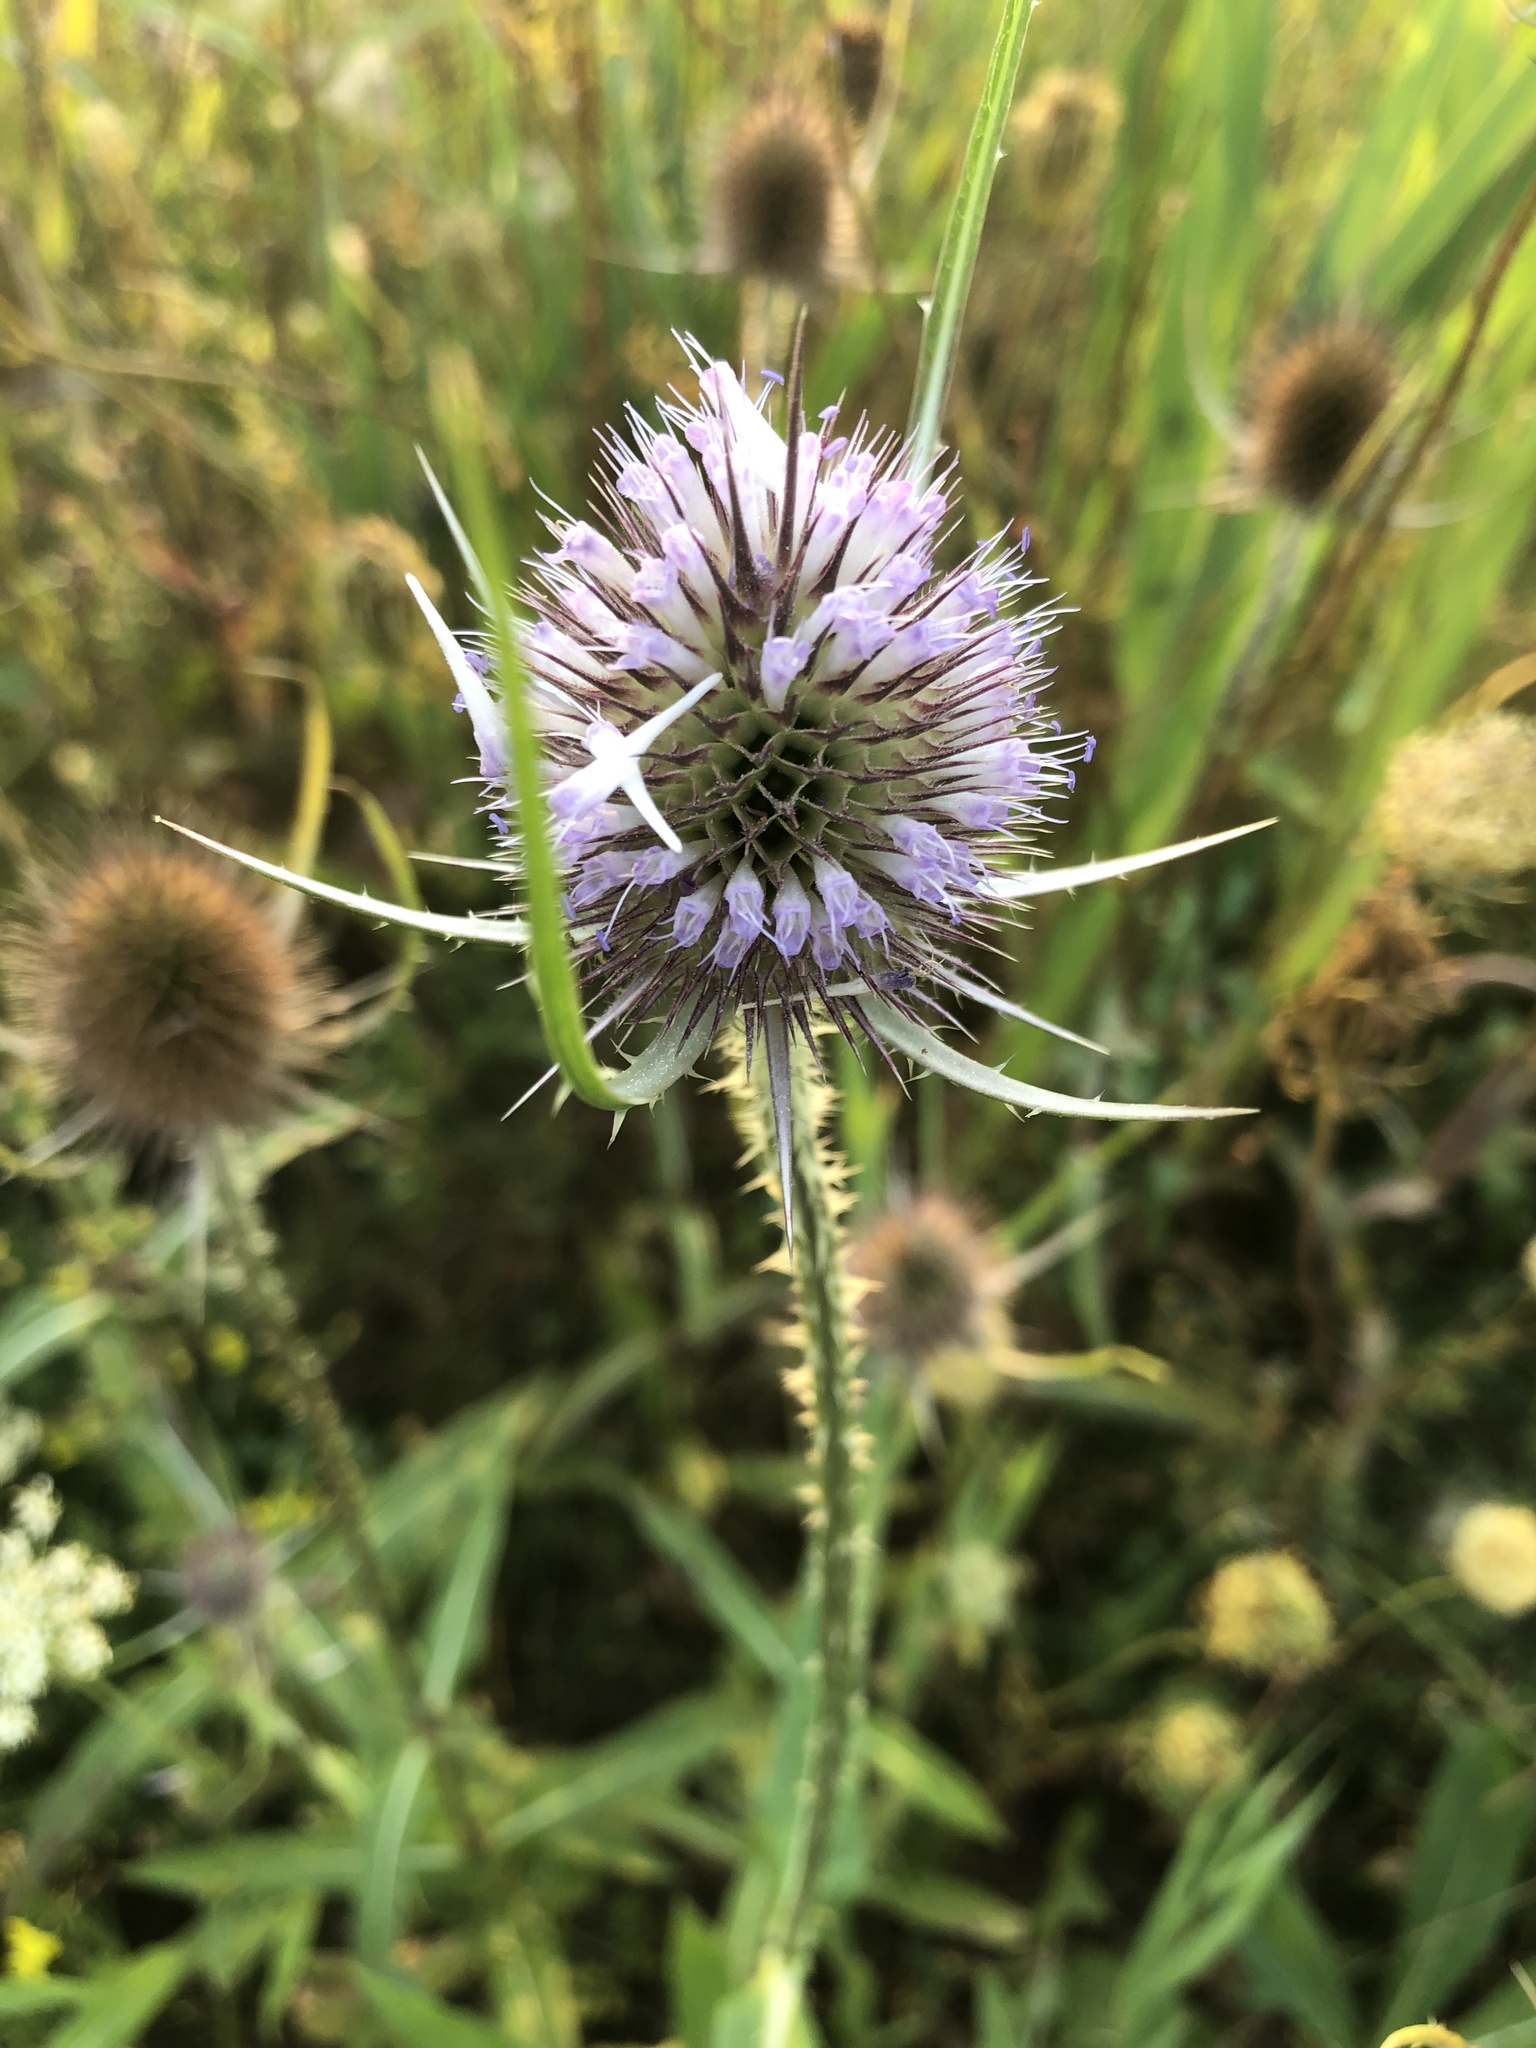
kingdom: Plantae
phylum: Tracheophyta
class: Magnoliopsida
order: Dipsacales
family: Caprifoliaceae
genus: Dipsacus
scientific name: Dipsacus fullonum
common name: Teasel
